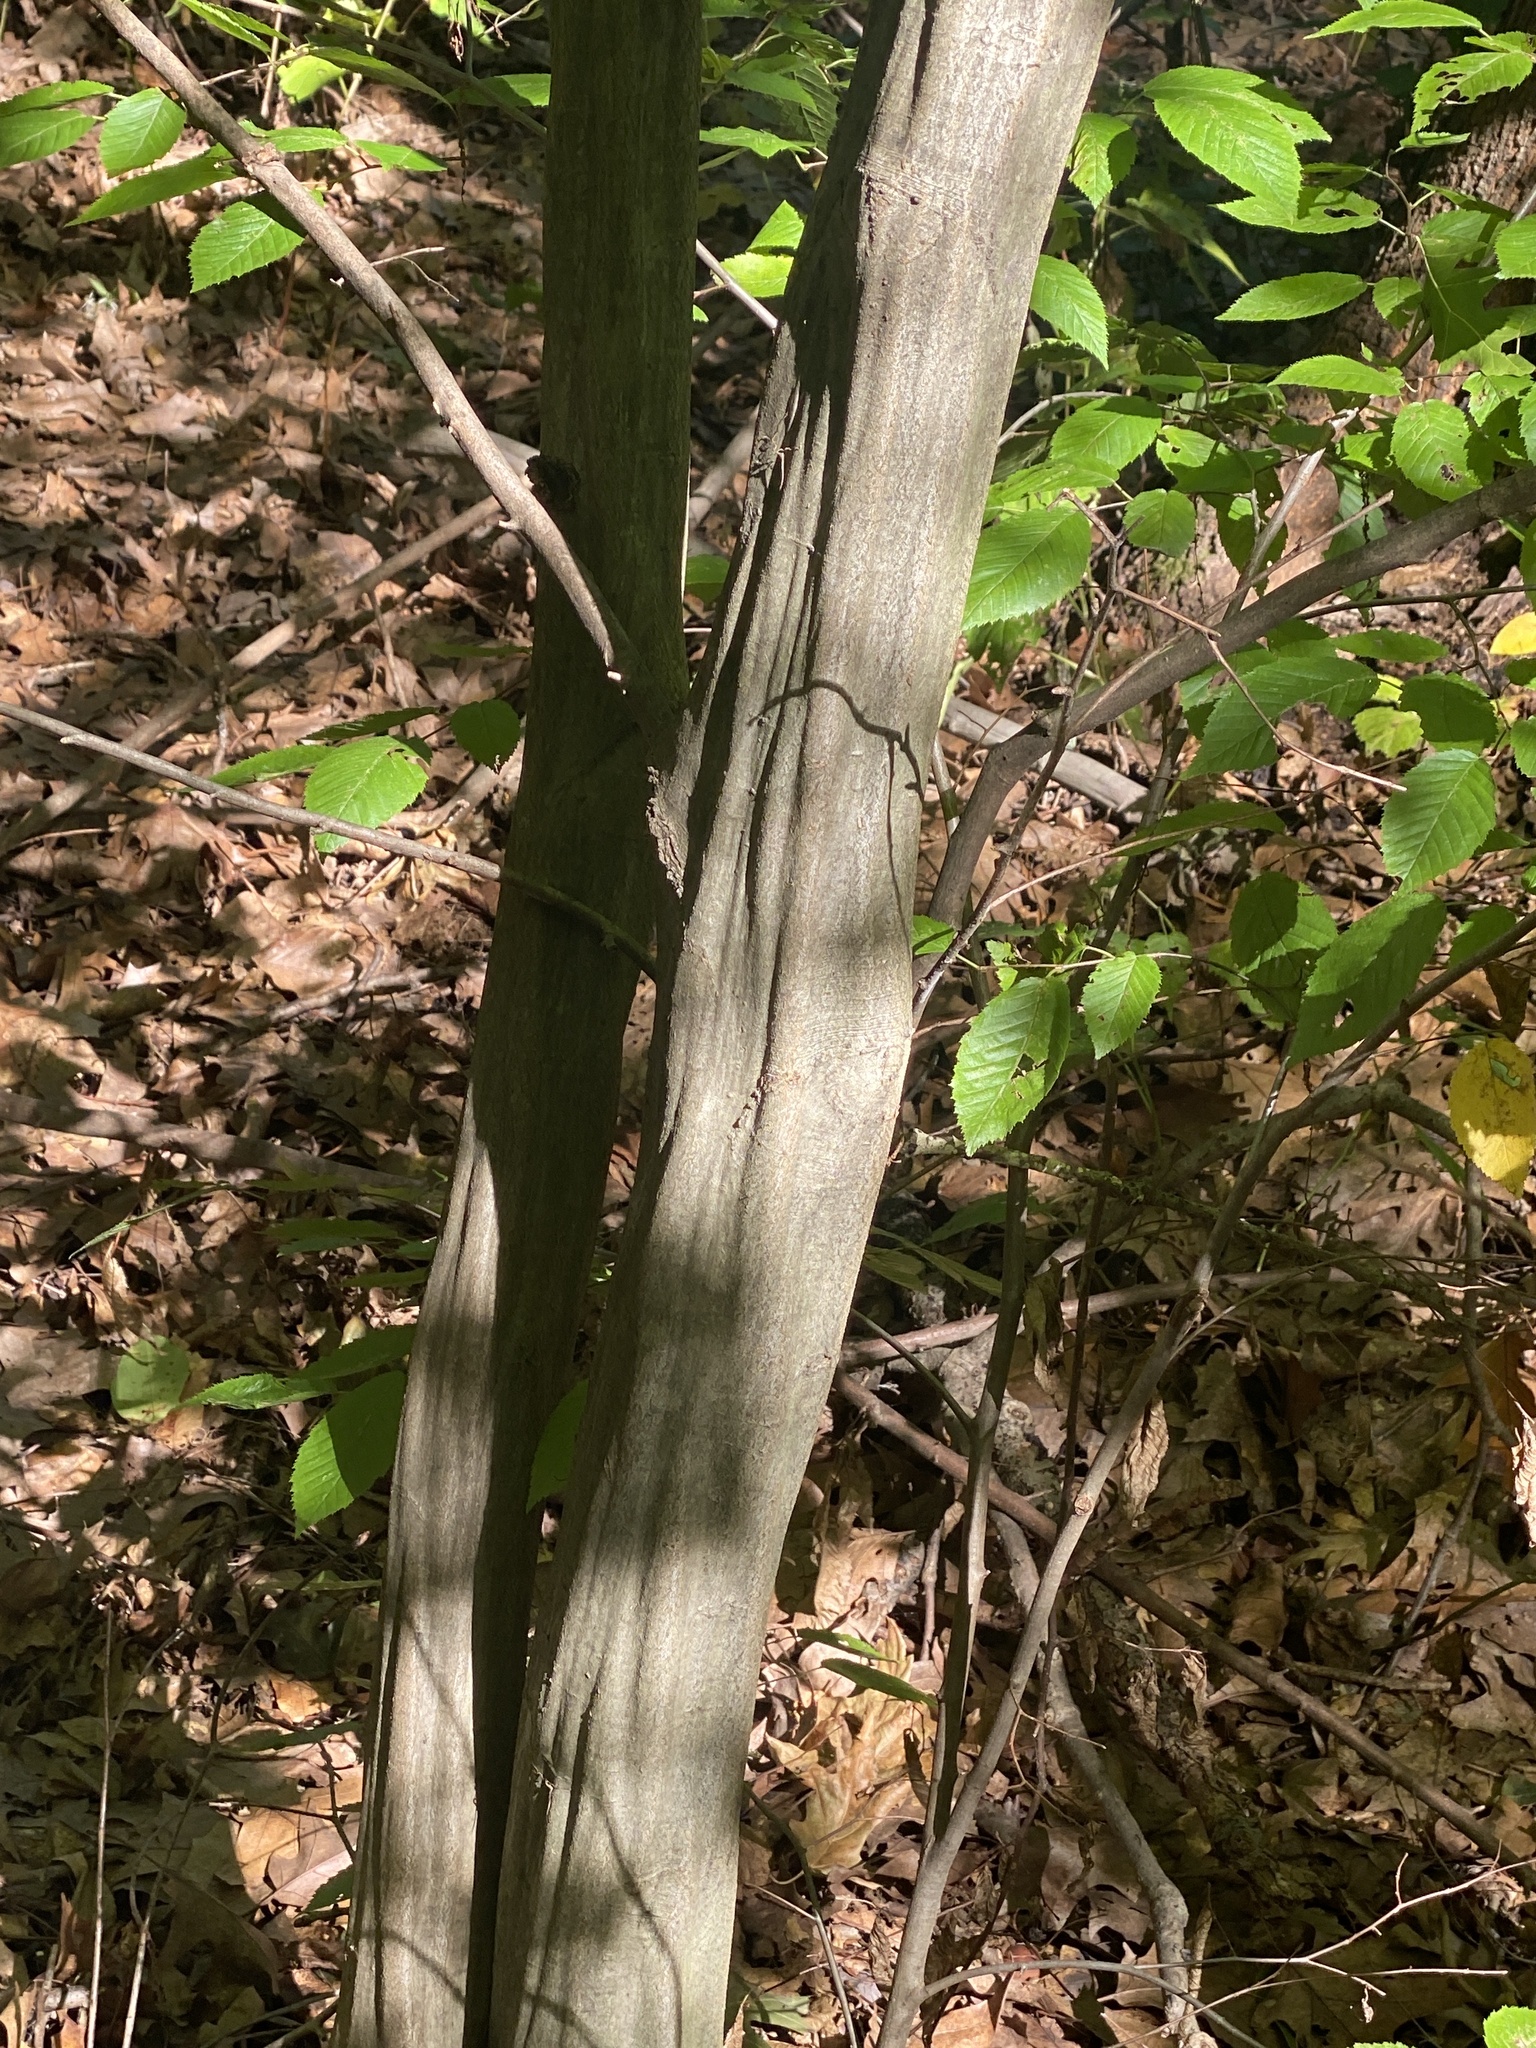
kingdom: Plantae
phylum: Tracheophyta
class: Magnoliopsida
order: Fagales
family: Betulaceae
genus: Carpinus
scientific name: Carpinus caroliniana
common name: American hornbeam
